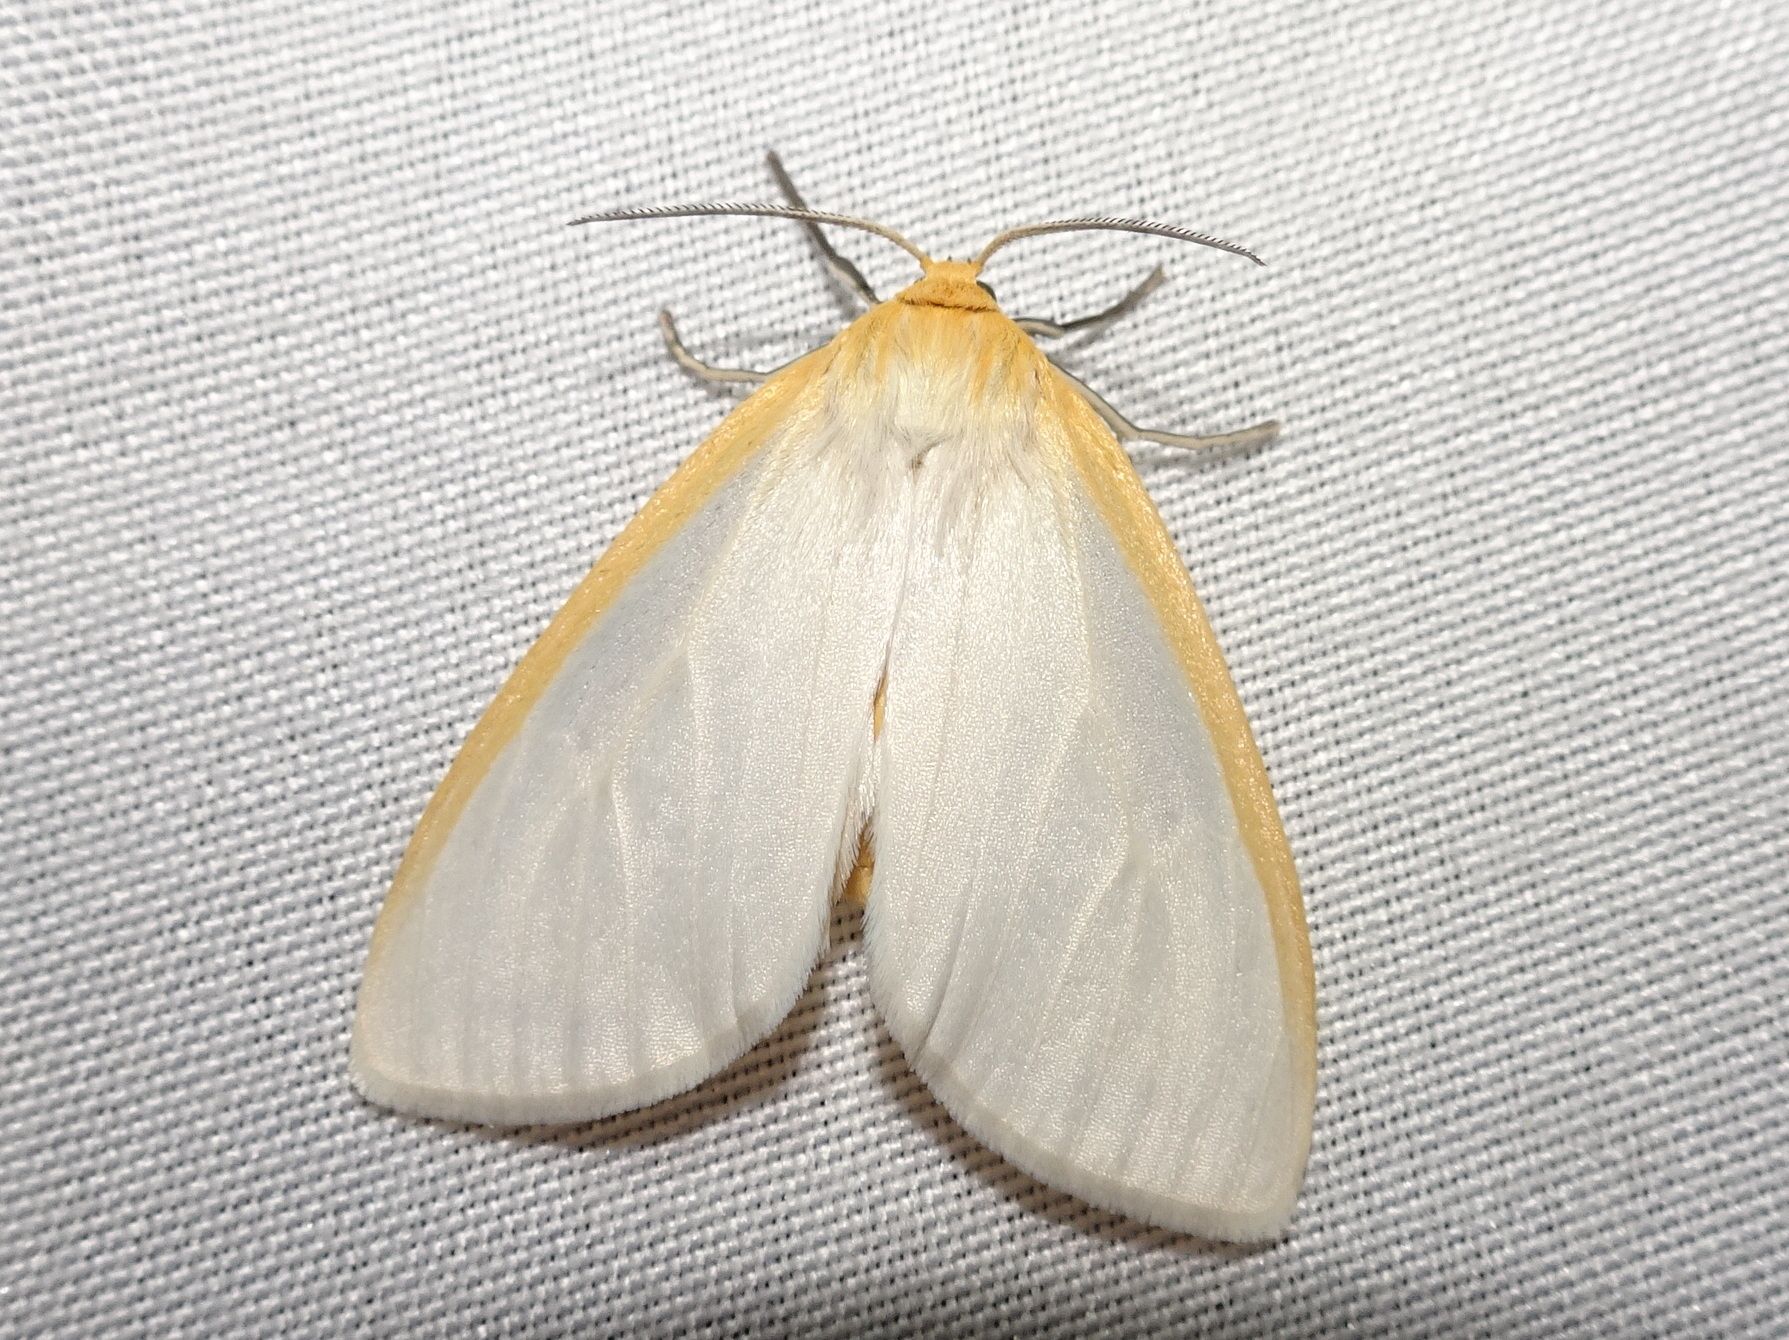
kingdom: Animalia
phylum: Arthropoda
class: Insecta
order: Lepidoptera
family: Erebidae
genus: Cycnia
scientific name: Cycnia tenera
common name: Delicate cycnia moth
